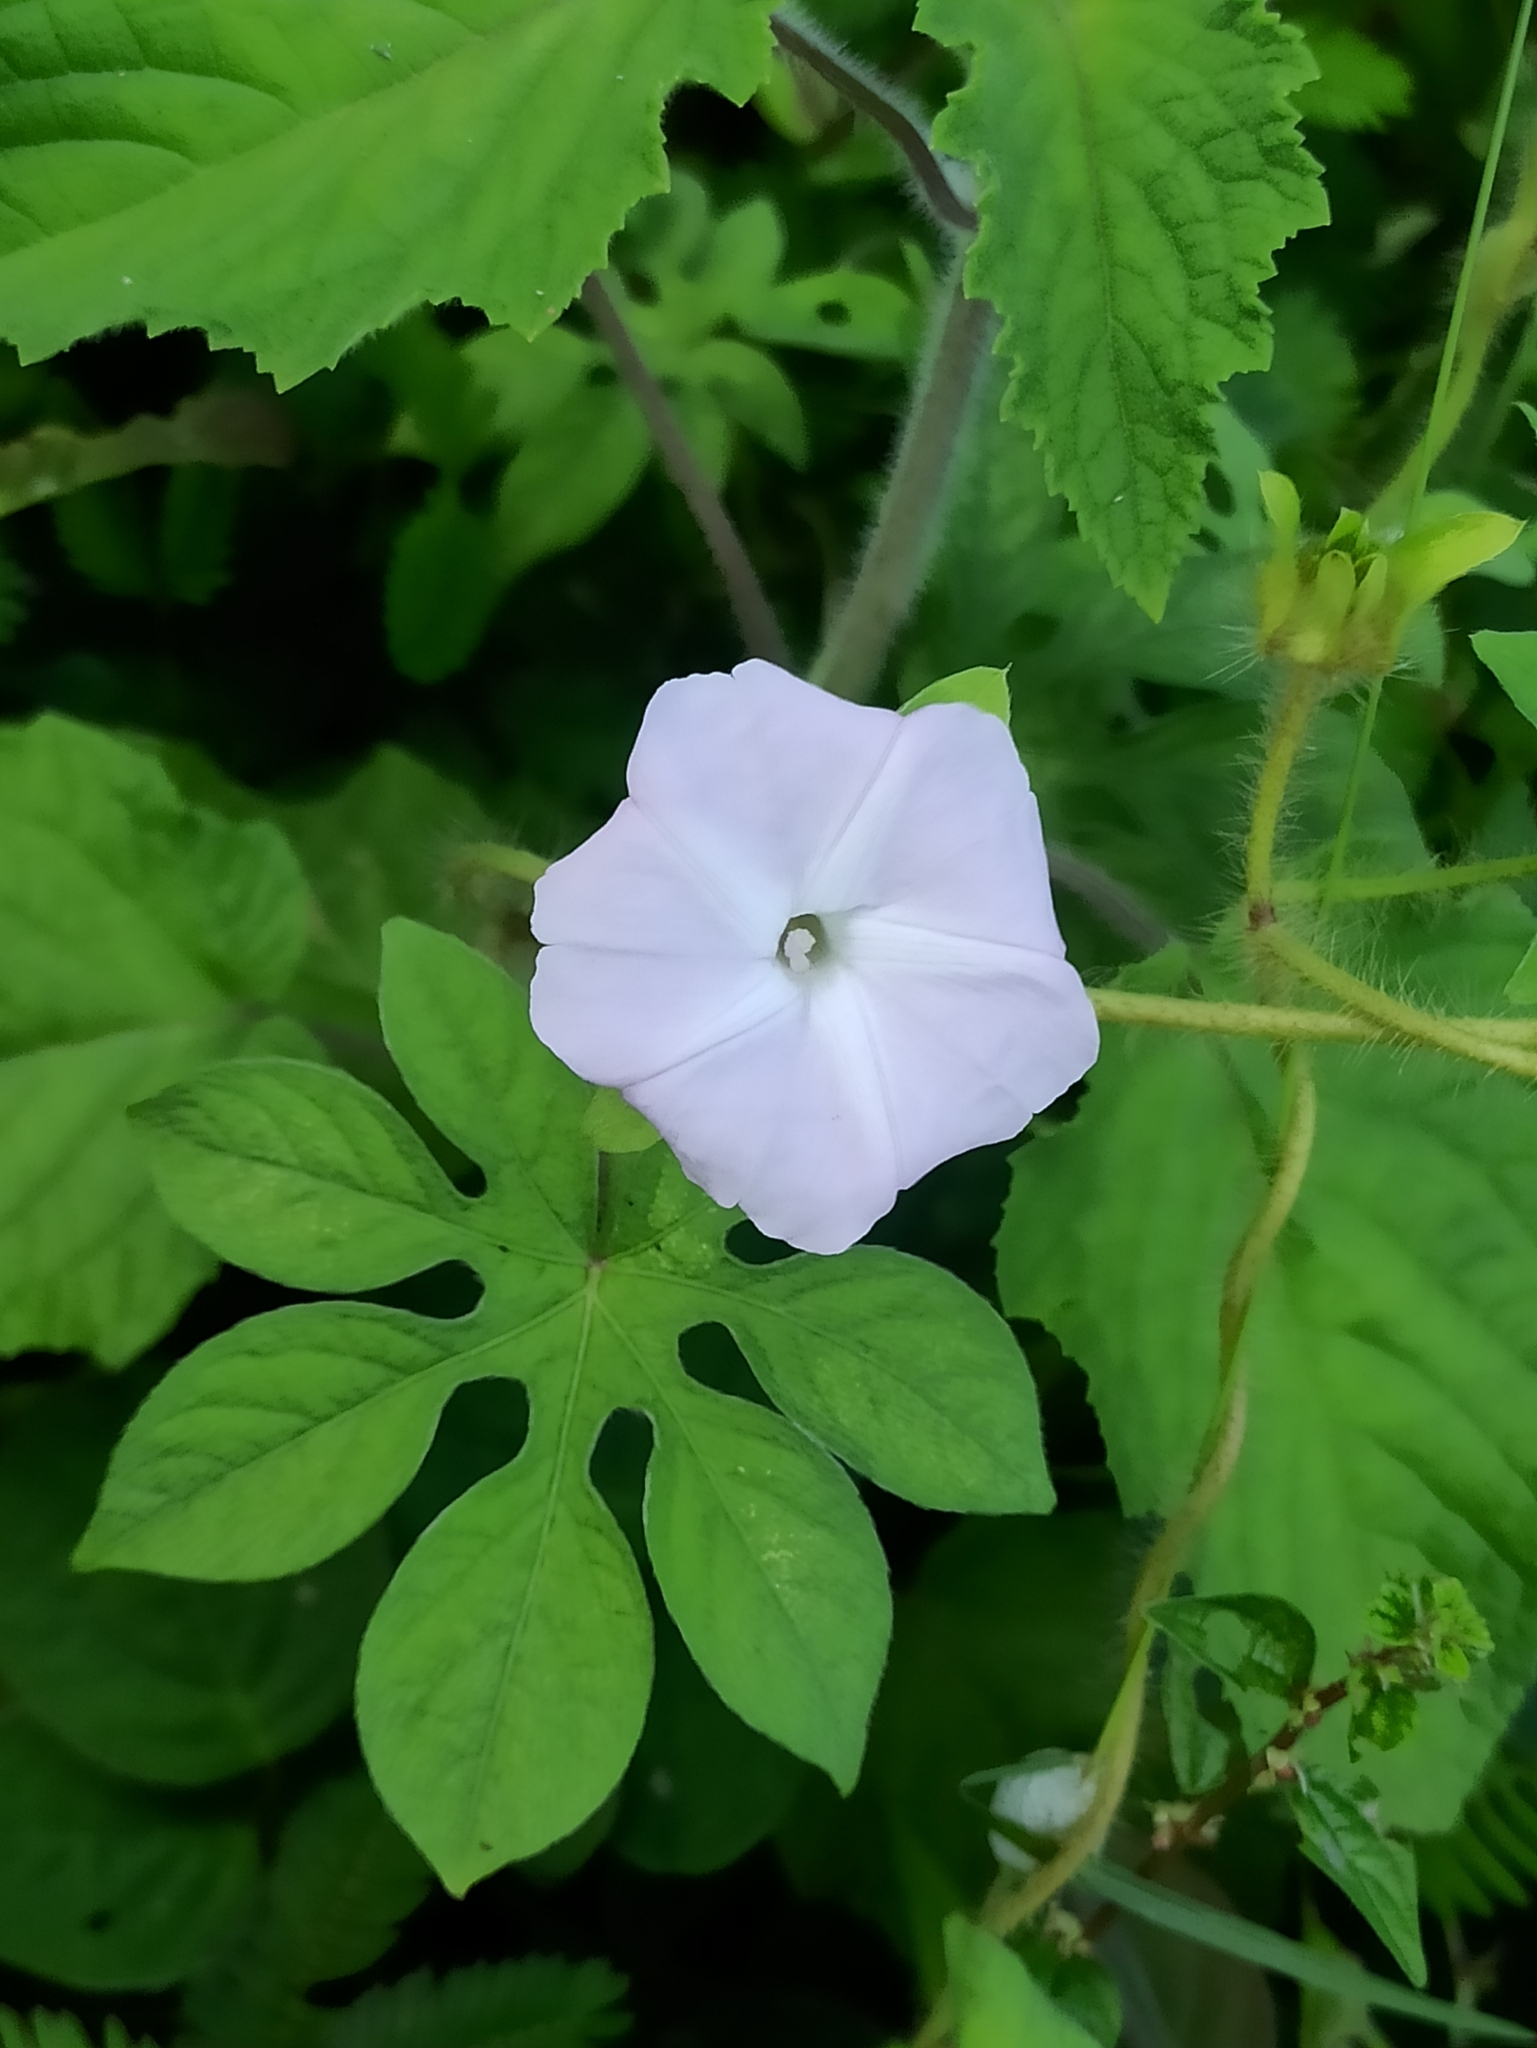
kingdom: Plantae
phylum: Tracheophyta
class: Magnoliopsida
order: Solanales
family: Convolvulaceae
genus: Ipomoea
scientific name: Ipomoea pes-tigridis
